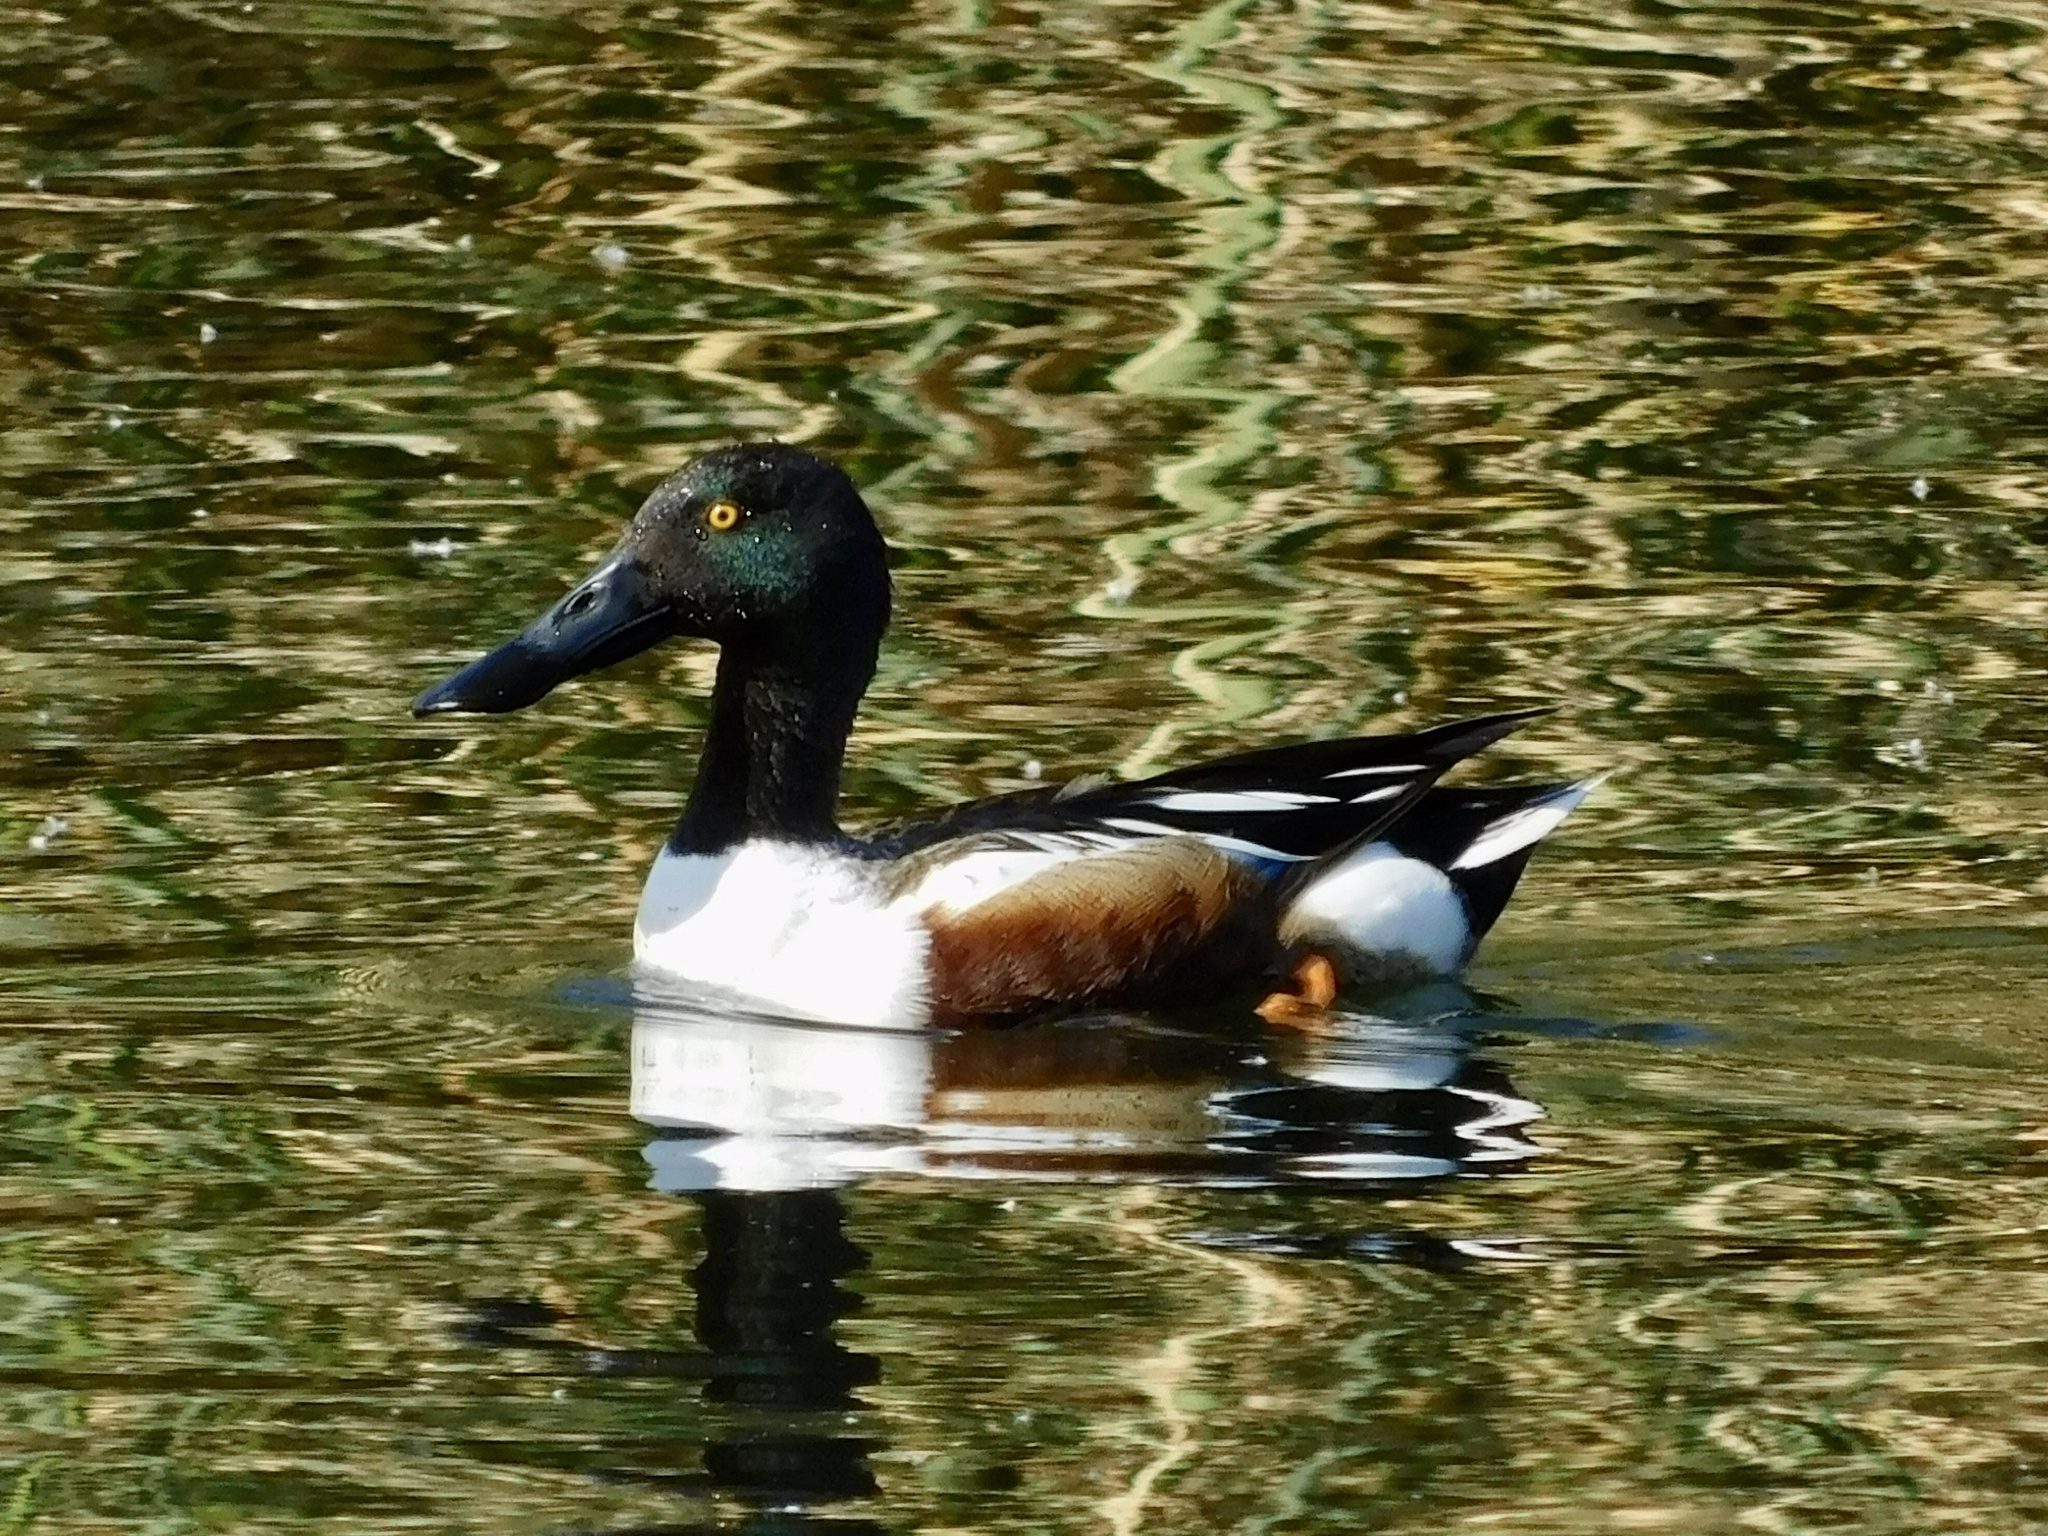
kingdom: Animalia
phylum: Chordata
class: Aves
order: Anseriformes
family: Anatidae
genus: Spatula
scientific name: Spatula clypeata
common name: Northern shoveler
